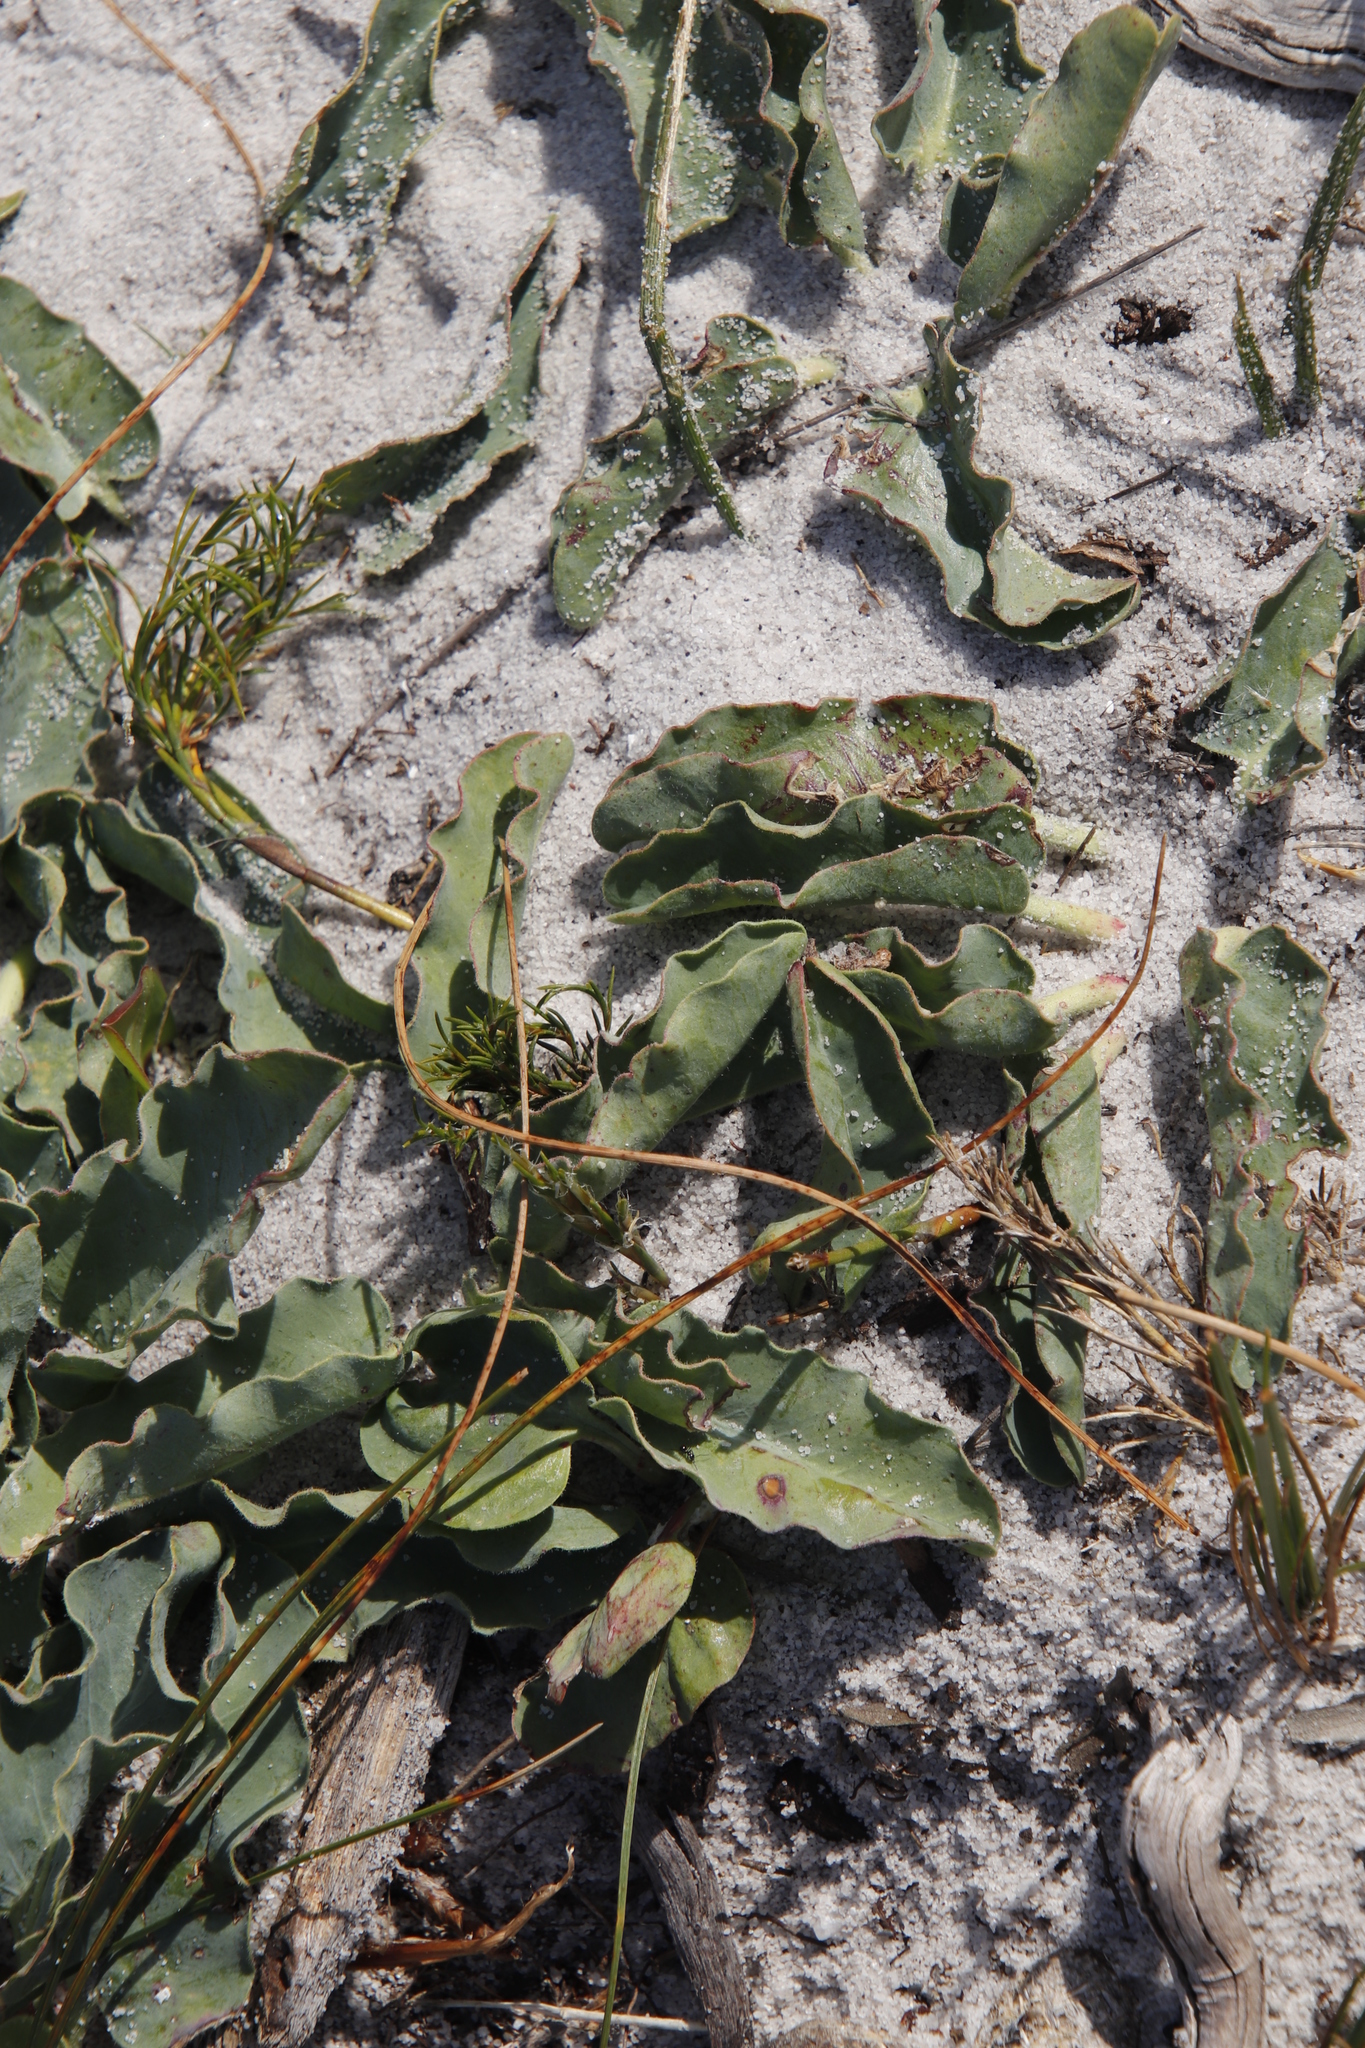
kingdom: Plantae
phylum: Tracheophyta
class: Magnoliopsida
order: Malpighiales
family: Euphorbiaceae
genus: Euphorbia
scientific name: Euphorbia tuberosa
